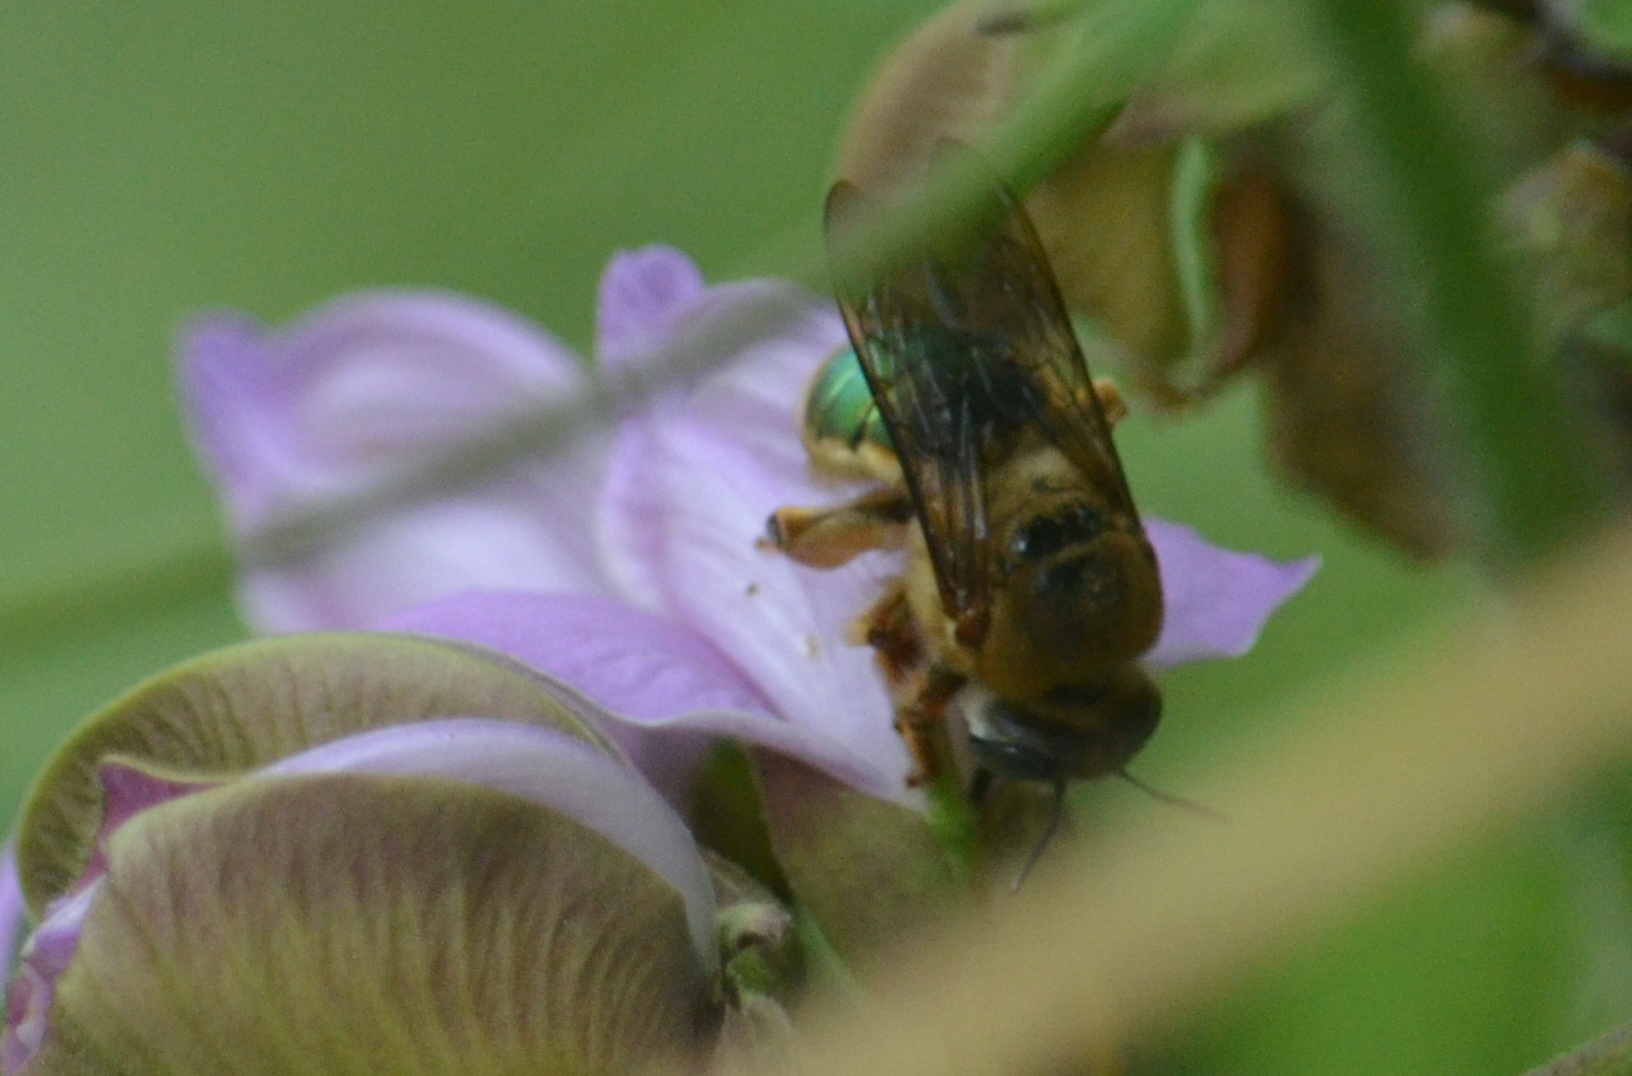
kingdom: Animalia
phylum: Arthropoda
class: Insecta
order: Hymenoptera
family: Andrenidae
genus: Oxaea
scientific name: Oxaea flavescens
